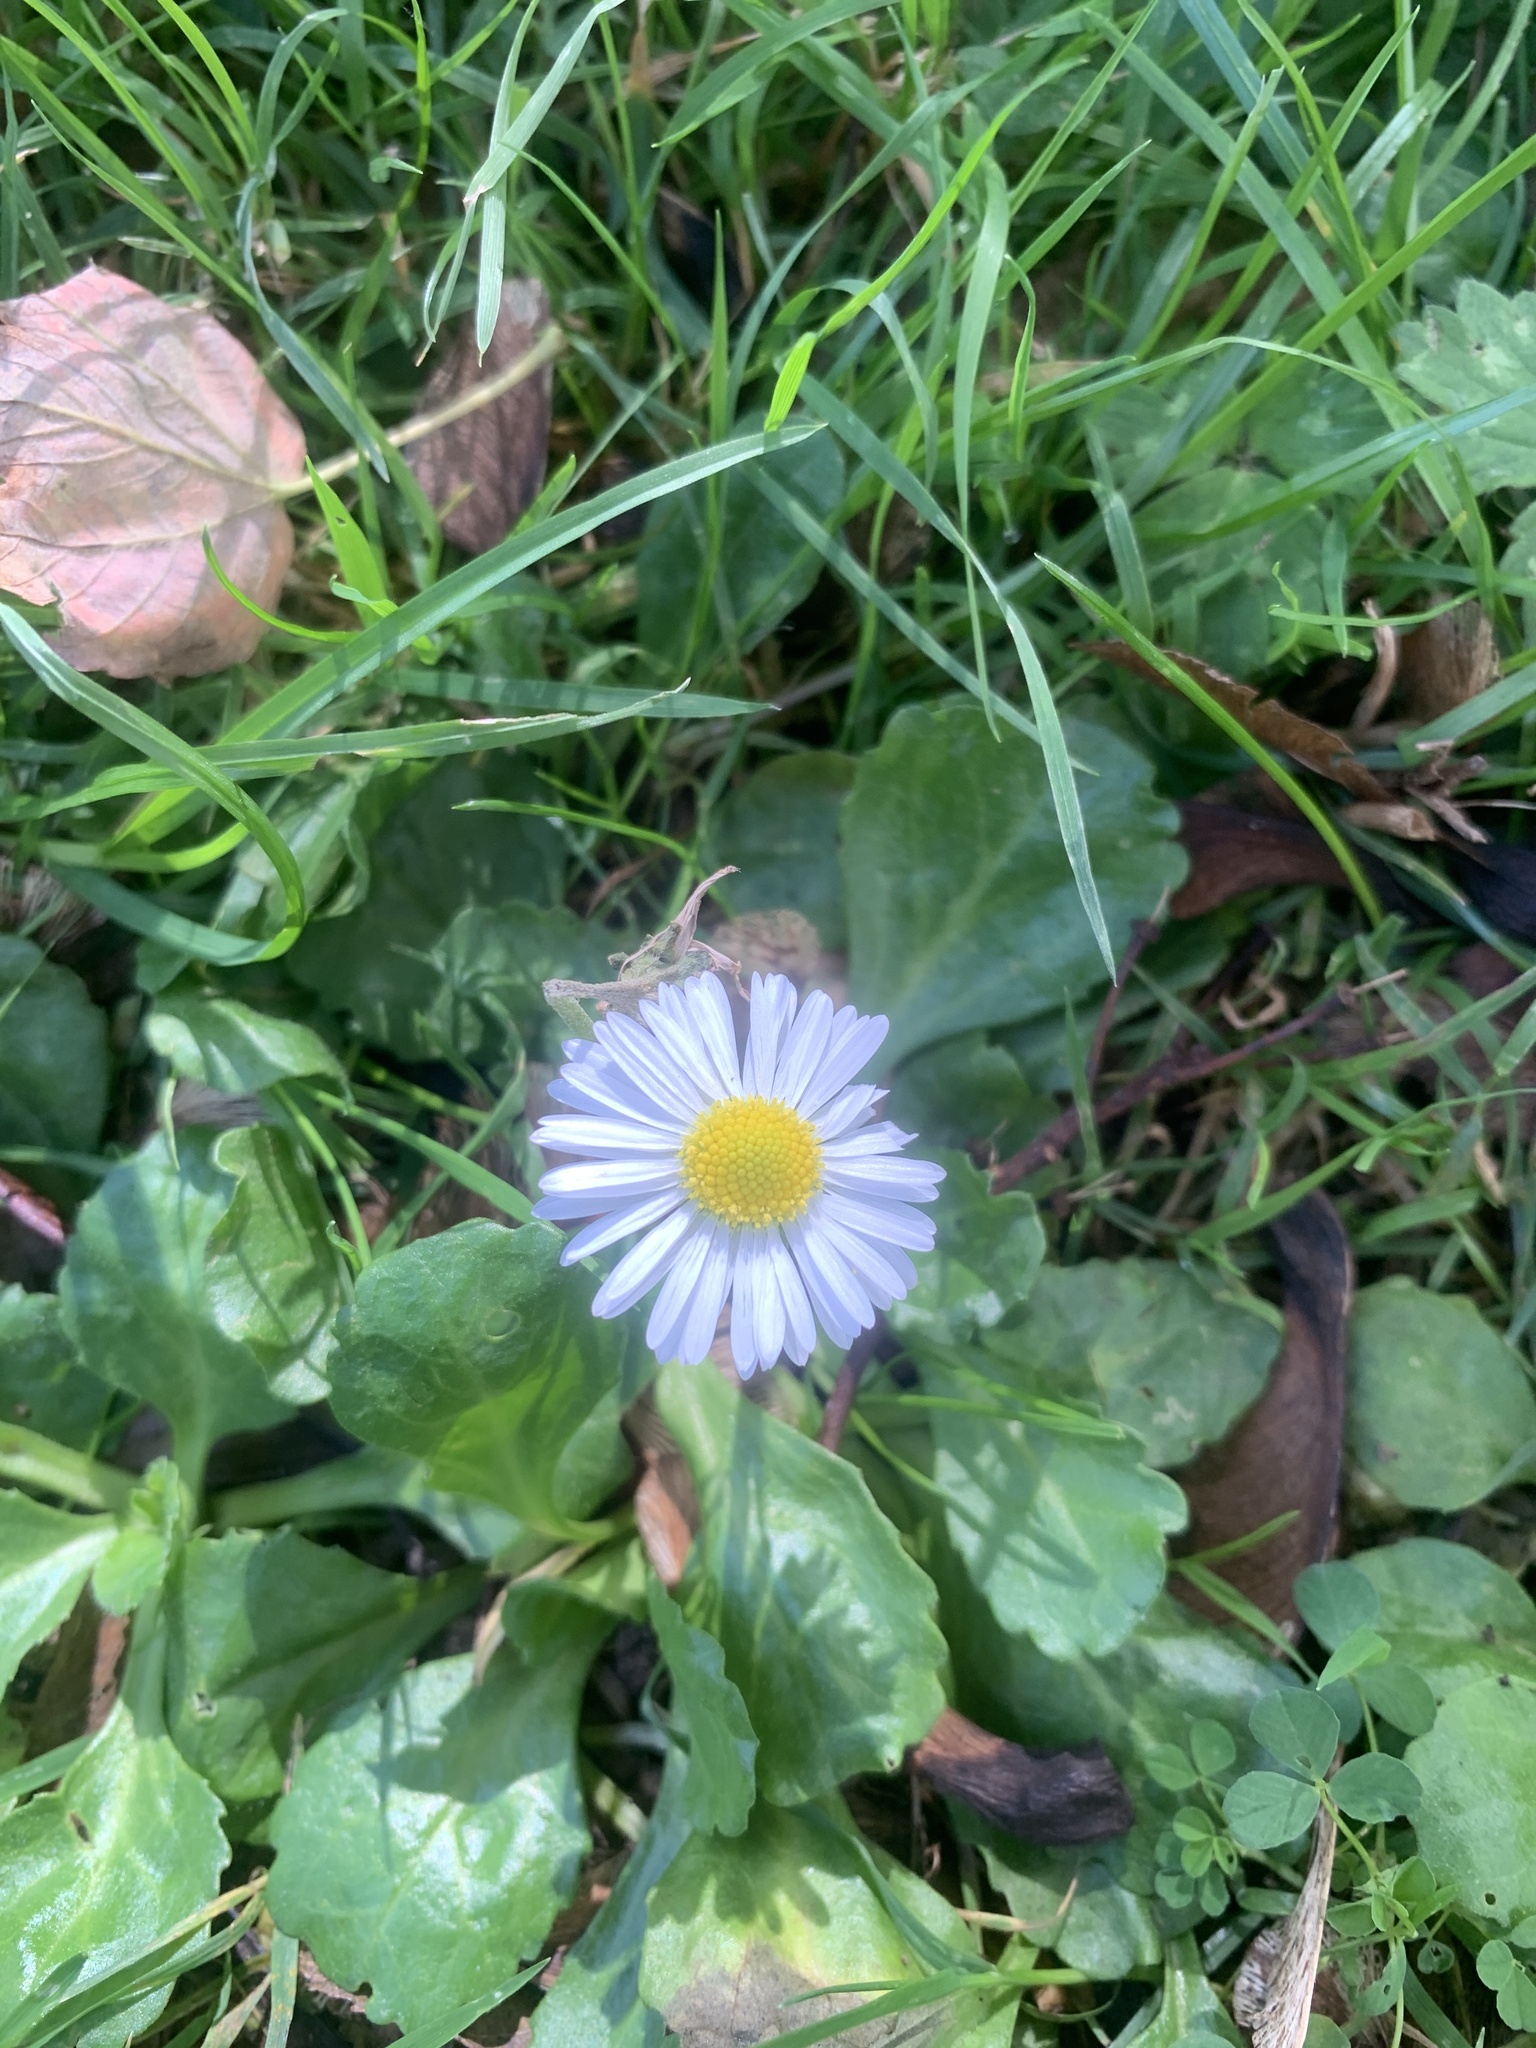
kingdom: Plantae
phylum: Tracheophyta
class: Magnoliopsida
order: Asterales
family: Asteraceae
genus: Bellis
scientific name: Bellis perennis
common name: Lawndaisy
